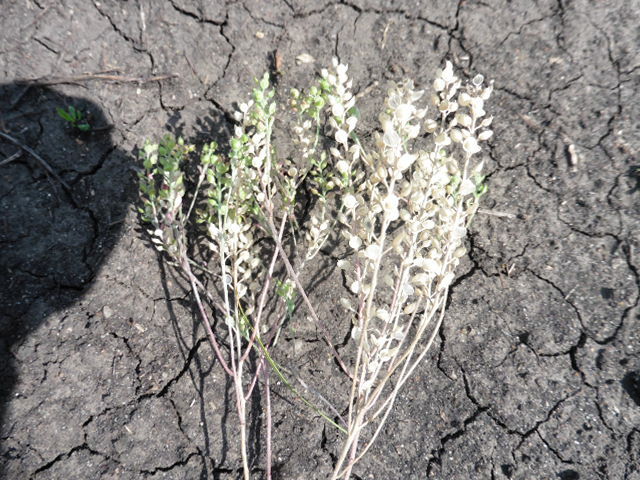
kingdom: Plantae
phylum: Tracheophyta
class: Magnoliopsida
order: Brassicales
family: Brassicaceae
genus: Alyssum
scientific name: Alyssum turkestanicum
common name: Desert alyssum
